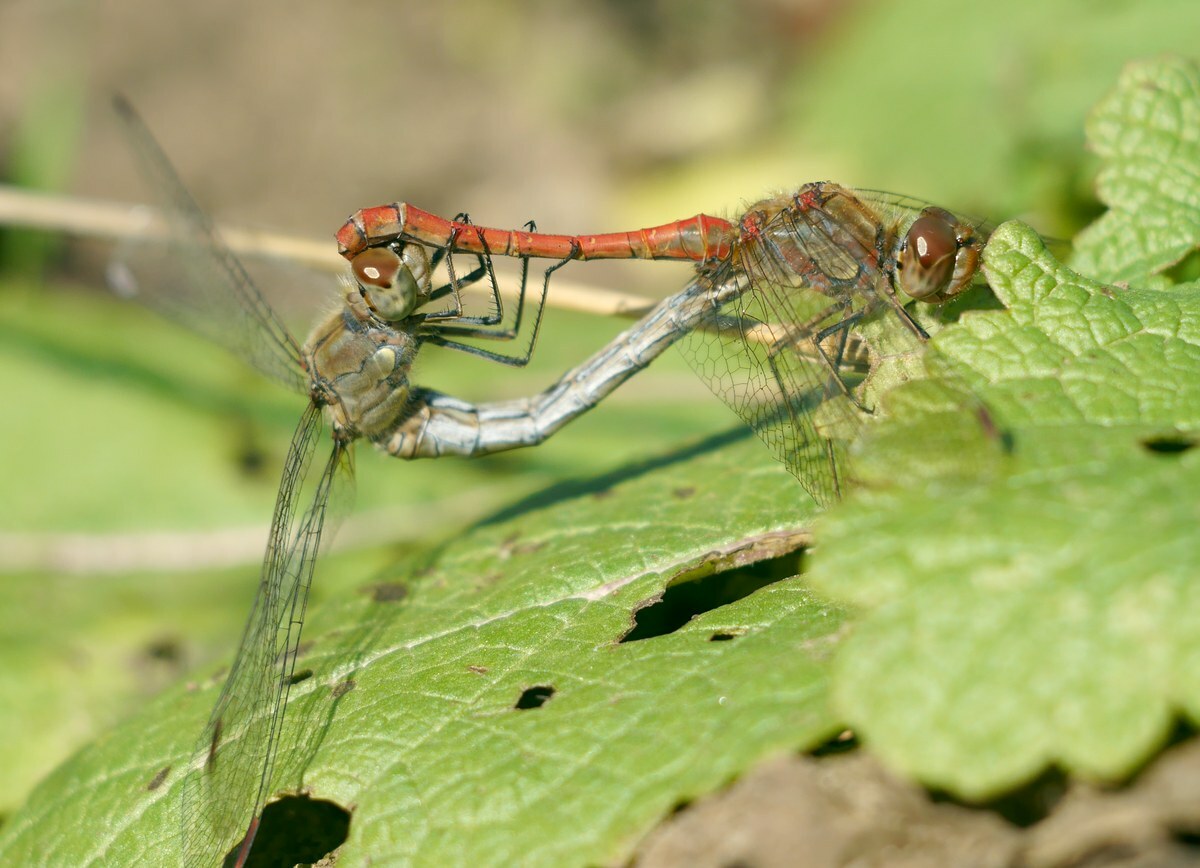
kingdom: Animalia
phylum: Arthropoda
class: Insecta
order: Odonata
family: Libellulidae
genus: Sympetrum
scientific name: Sympetrum striolatum
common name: Common darter
